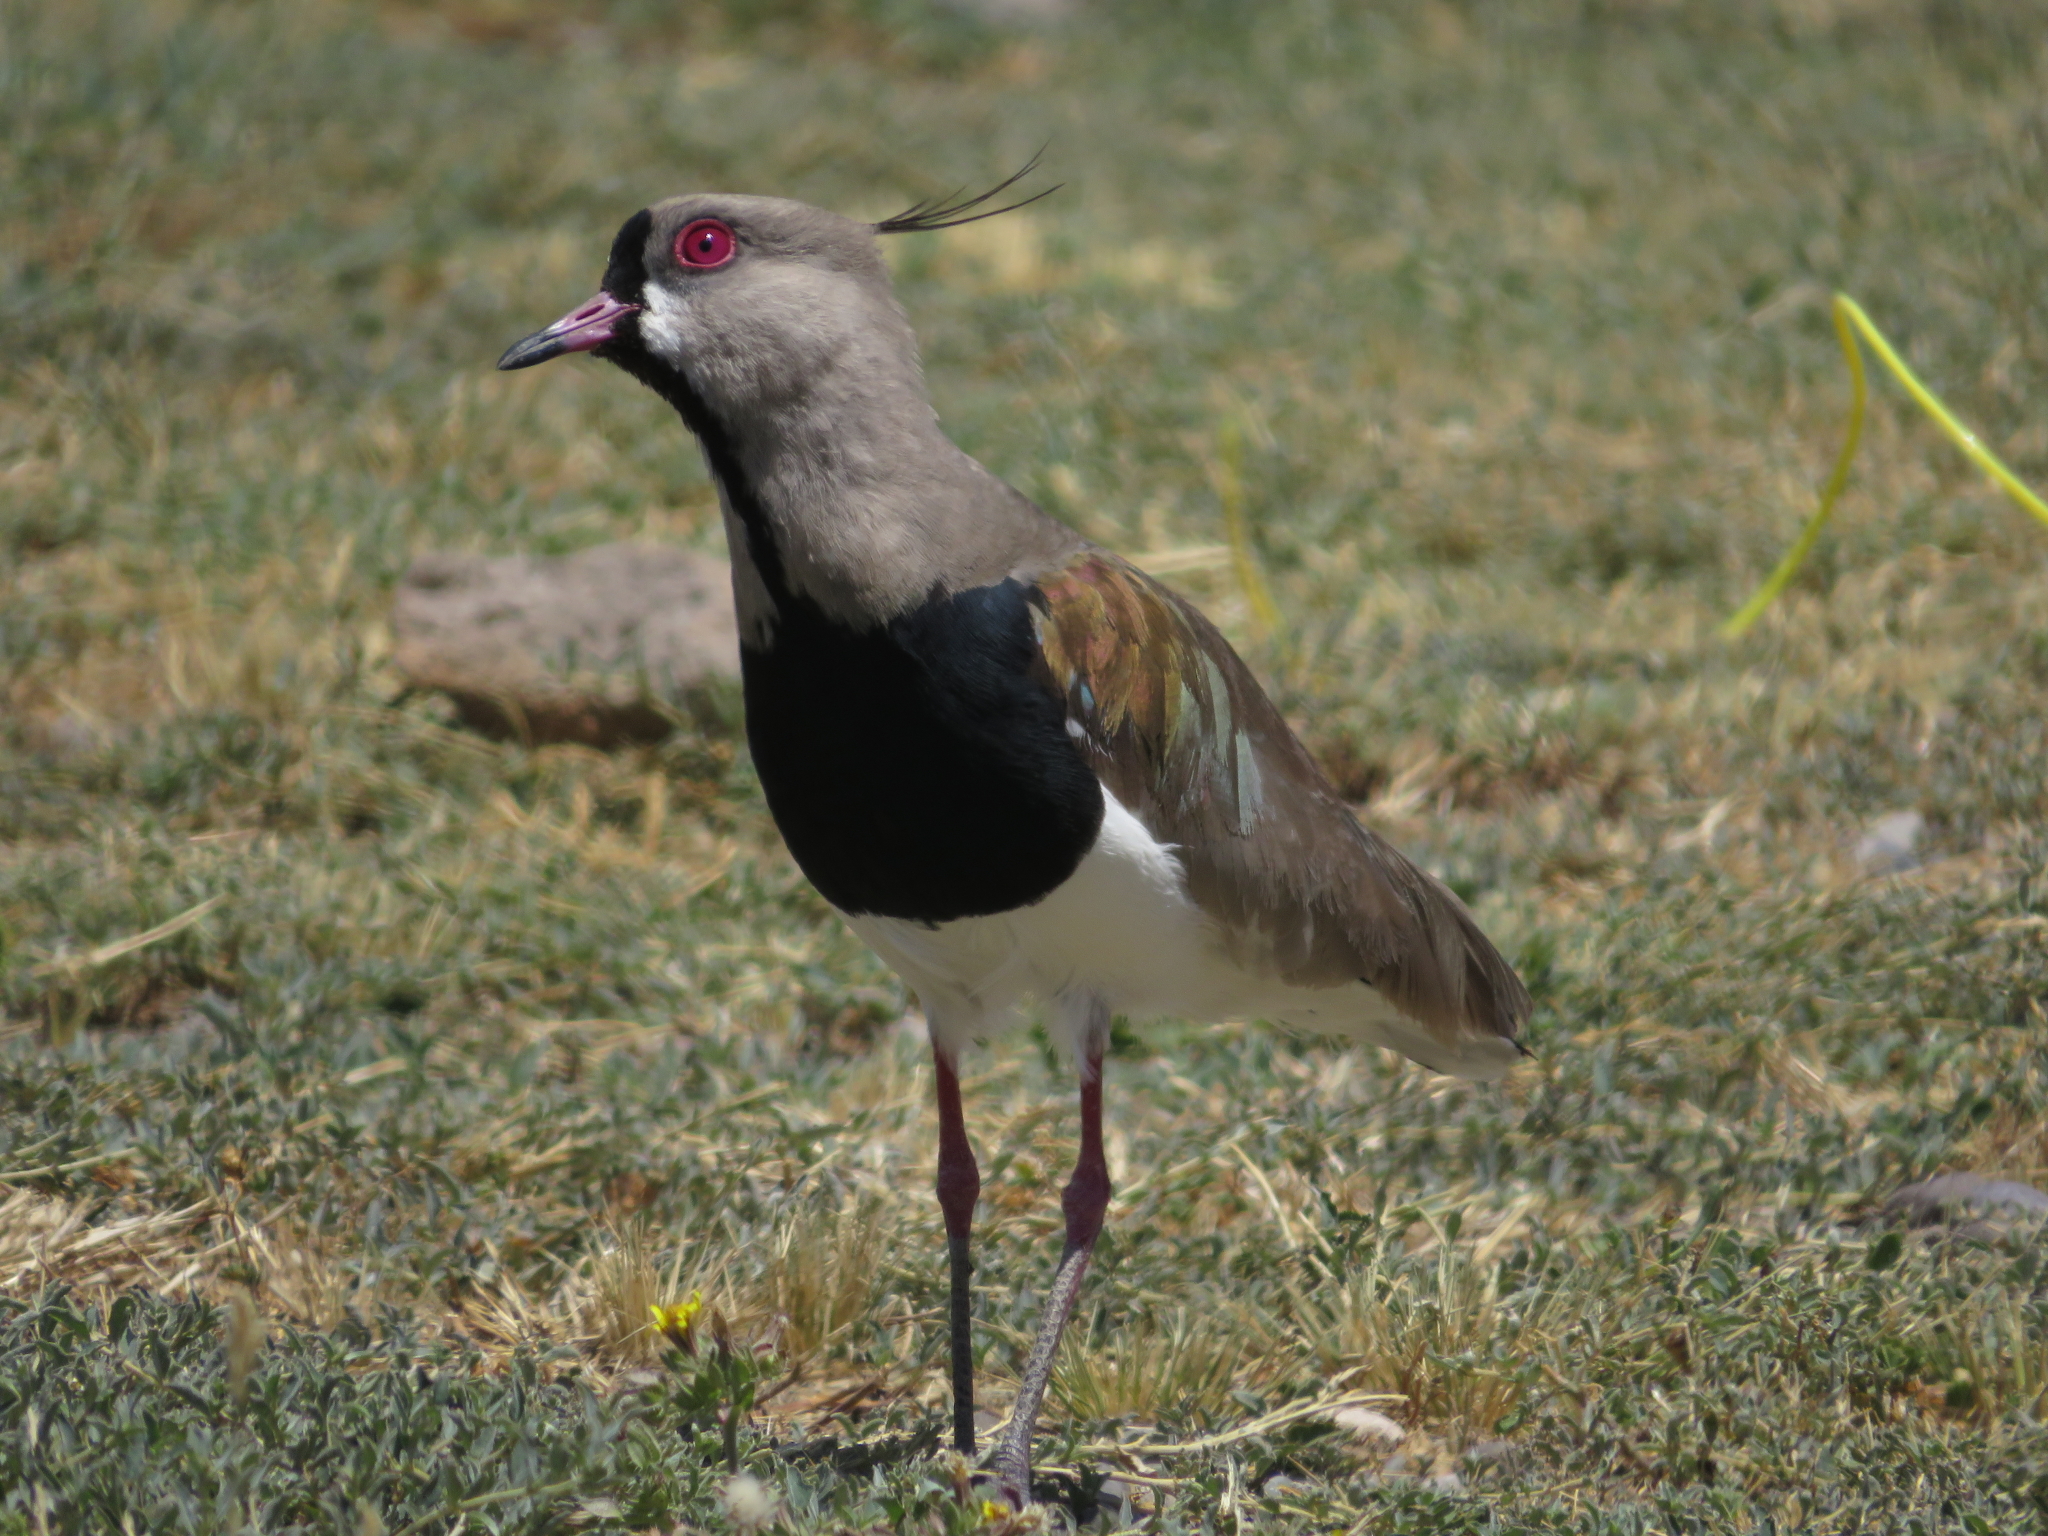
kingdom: Animalia
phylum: Chordata
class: Aves
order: Charadriiformes
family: Charadriidae
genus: Vanellus
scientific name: Vanellus chilensis
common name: Southern lapwing
